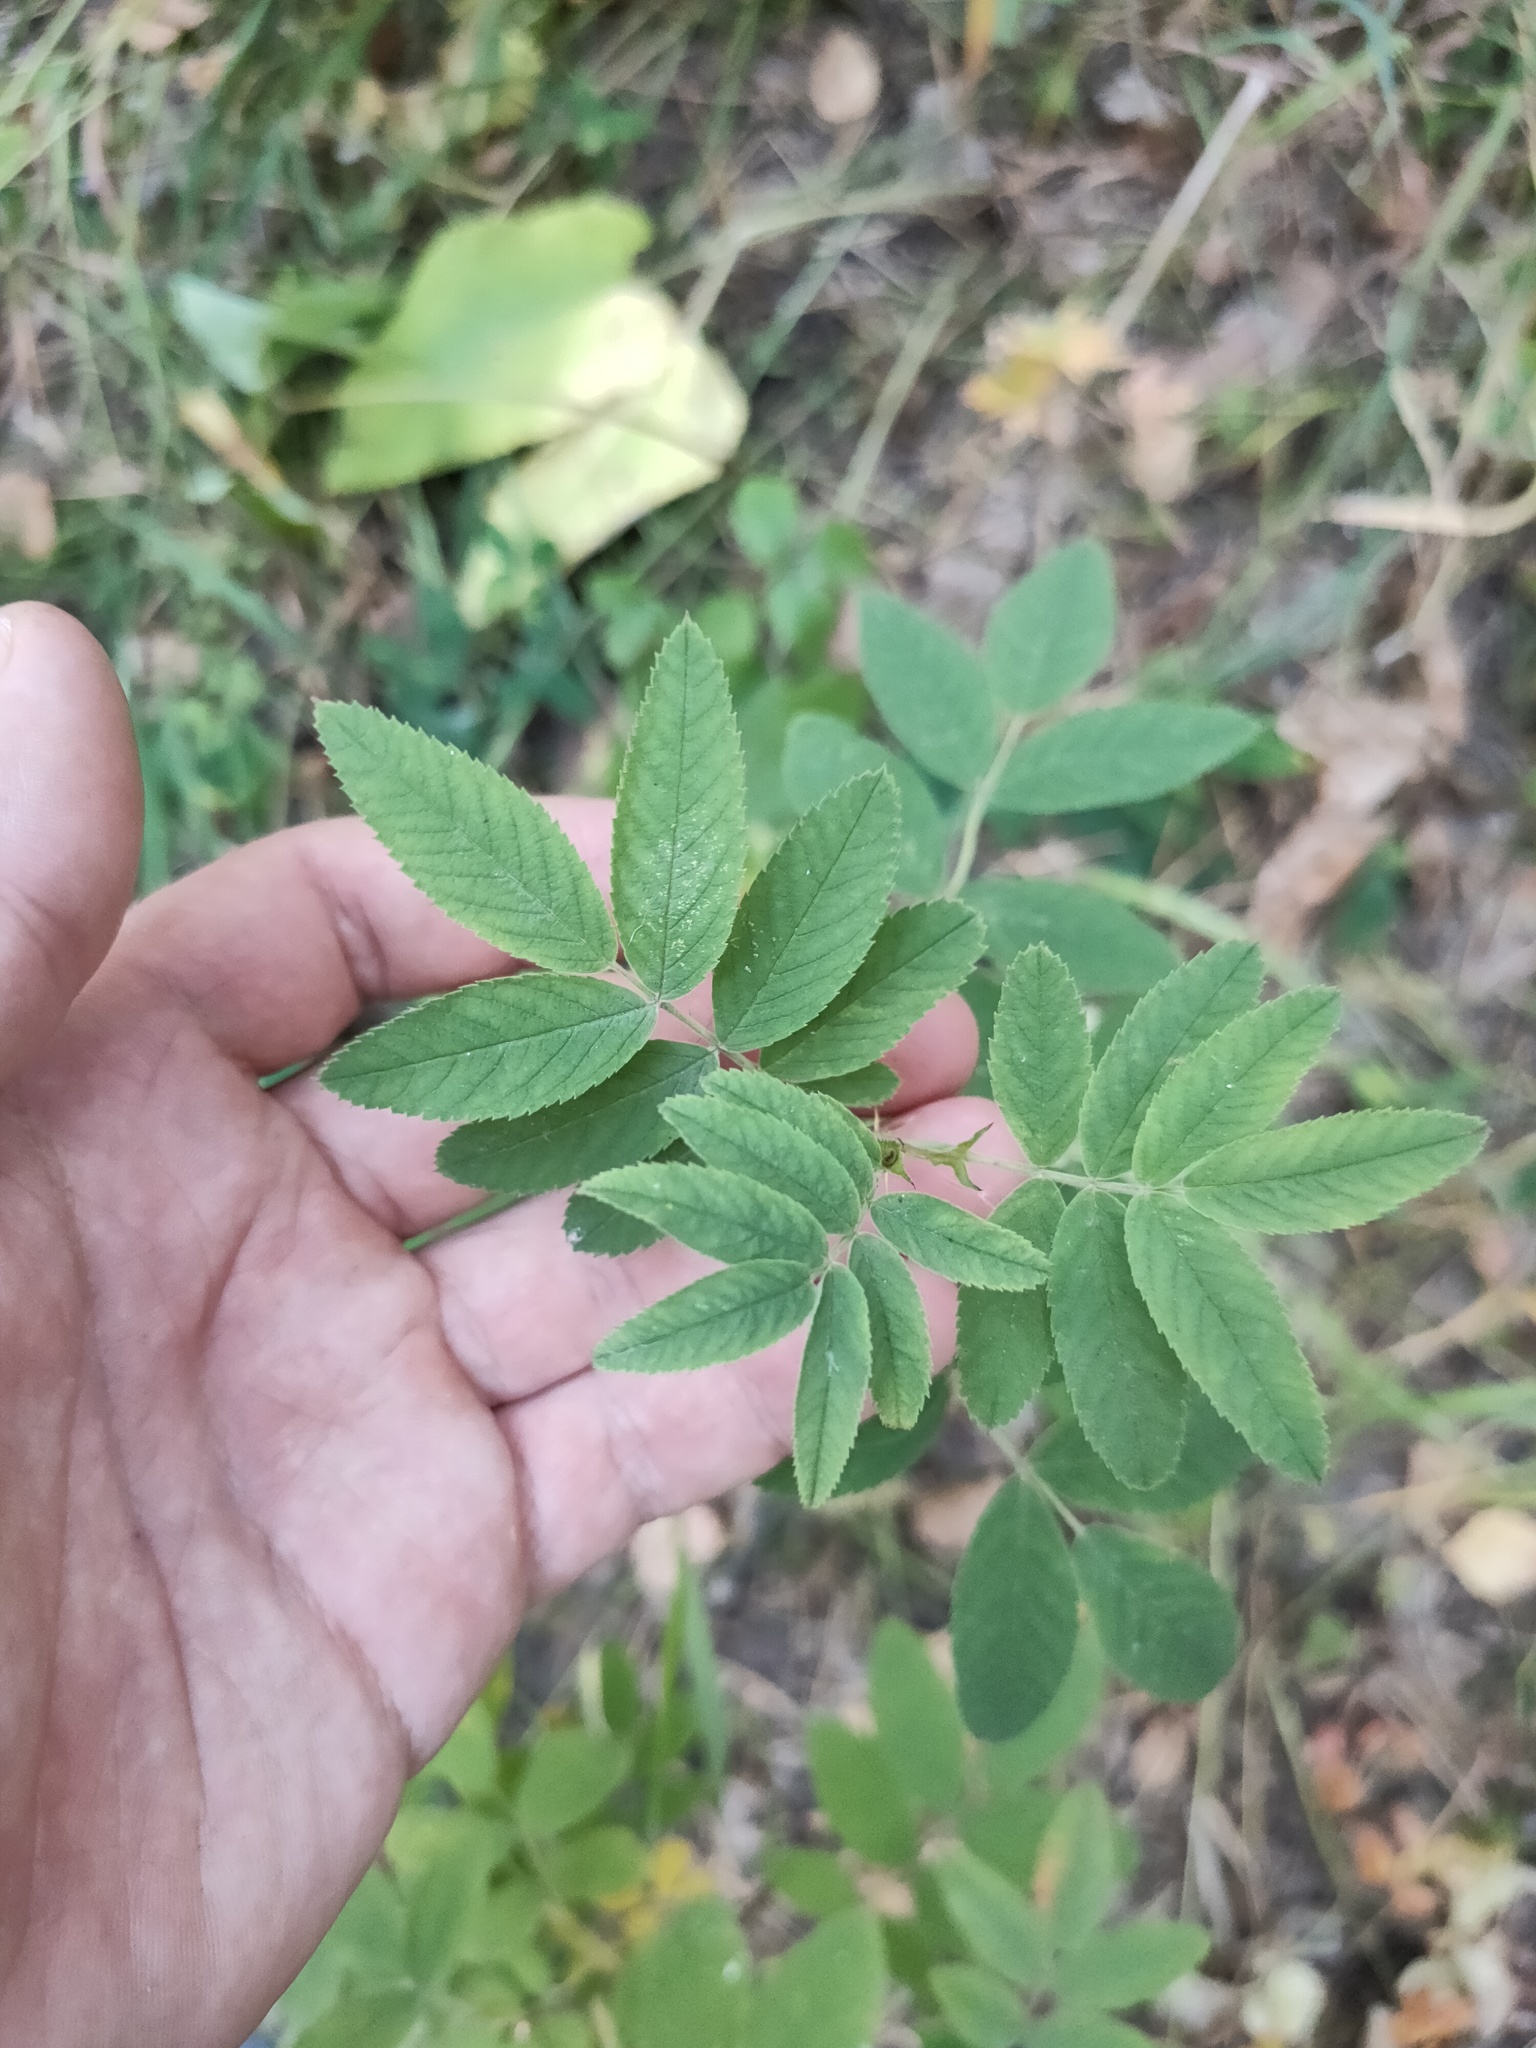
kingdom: Plantae
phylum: Tracheophyta
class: Magnoliopsida
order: Rosales
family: Rosaceae
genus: Rosa
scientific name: Rosa
